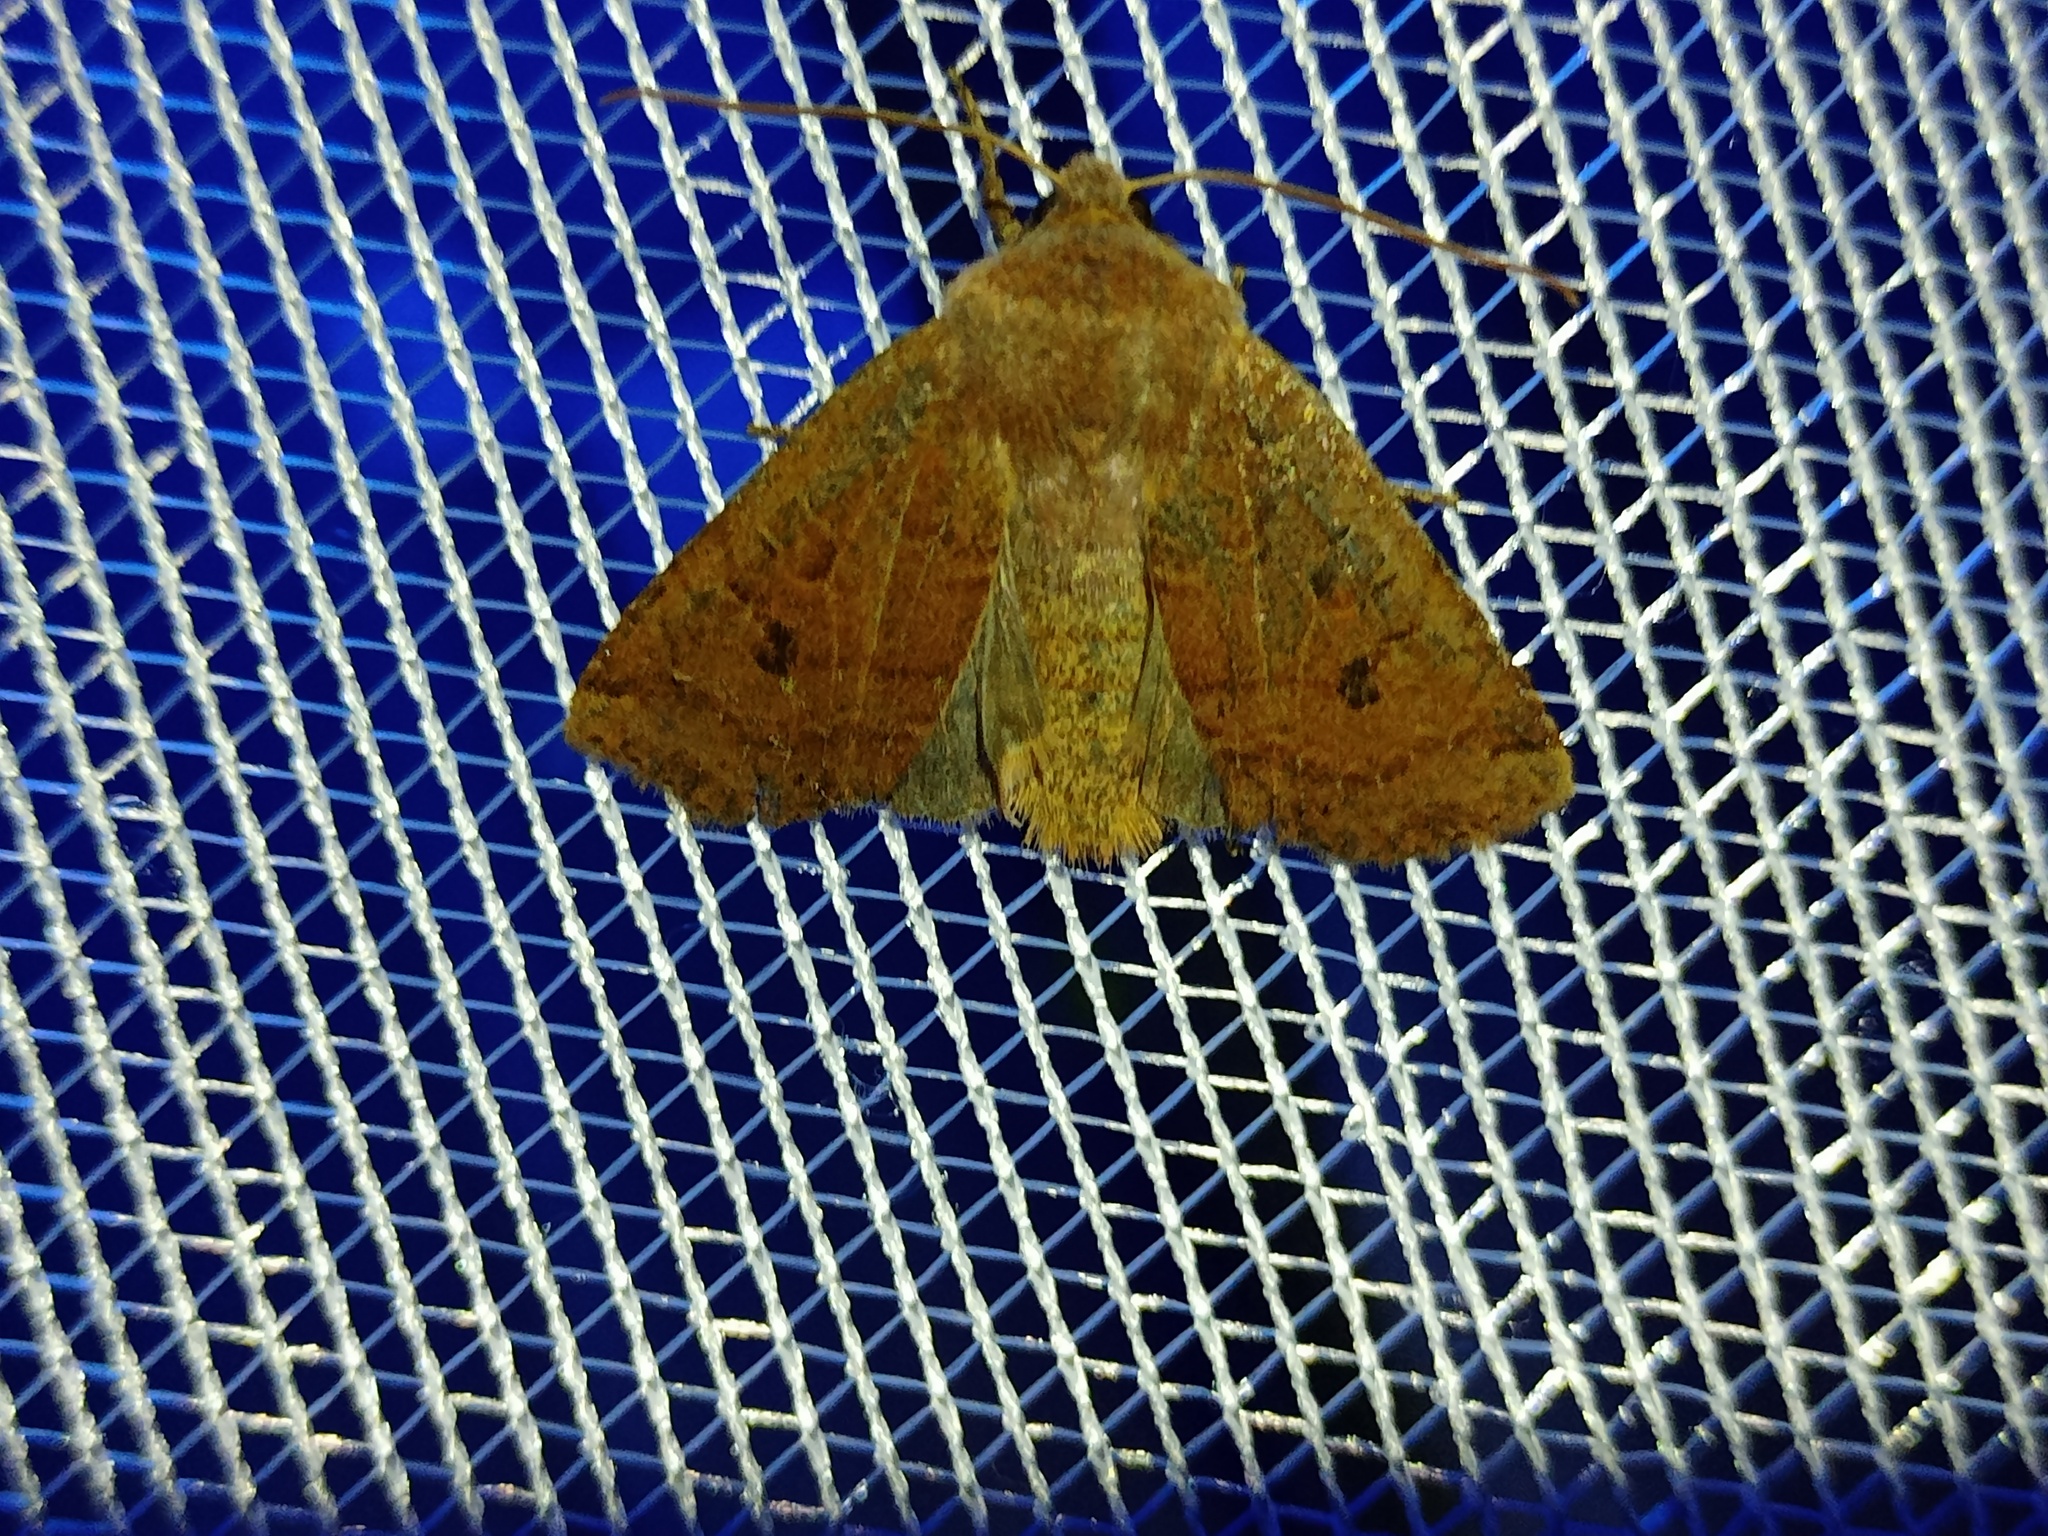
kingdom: Animalia
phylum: Arthropoda
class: Insecta
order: Lepidoptera
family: Noctuidae
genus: Conistra
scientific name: Conistra vaccinii
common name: Chestnut
